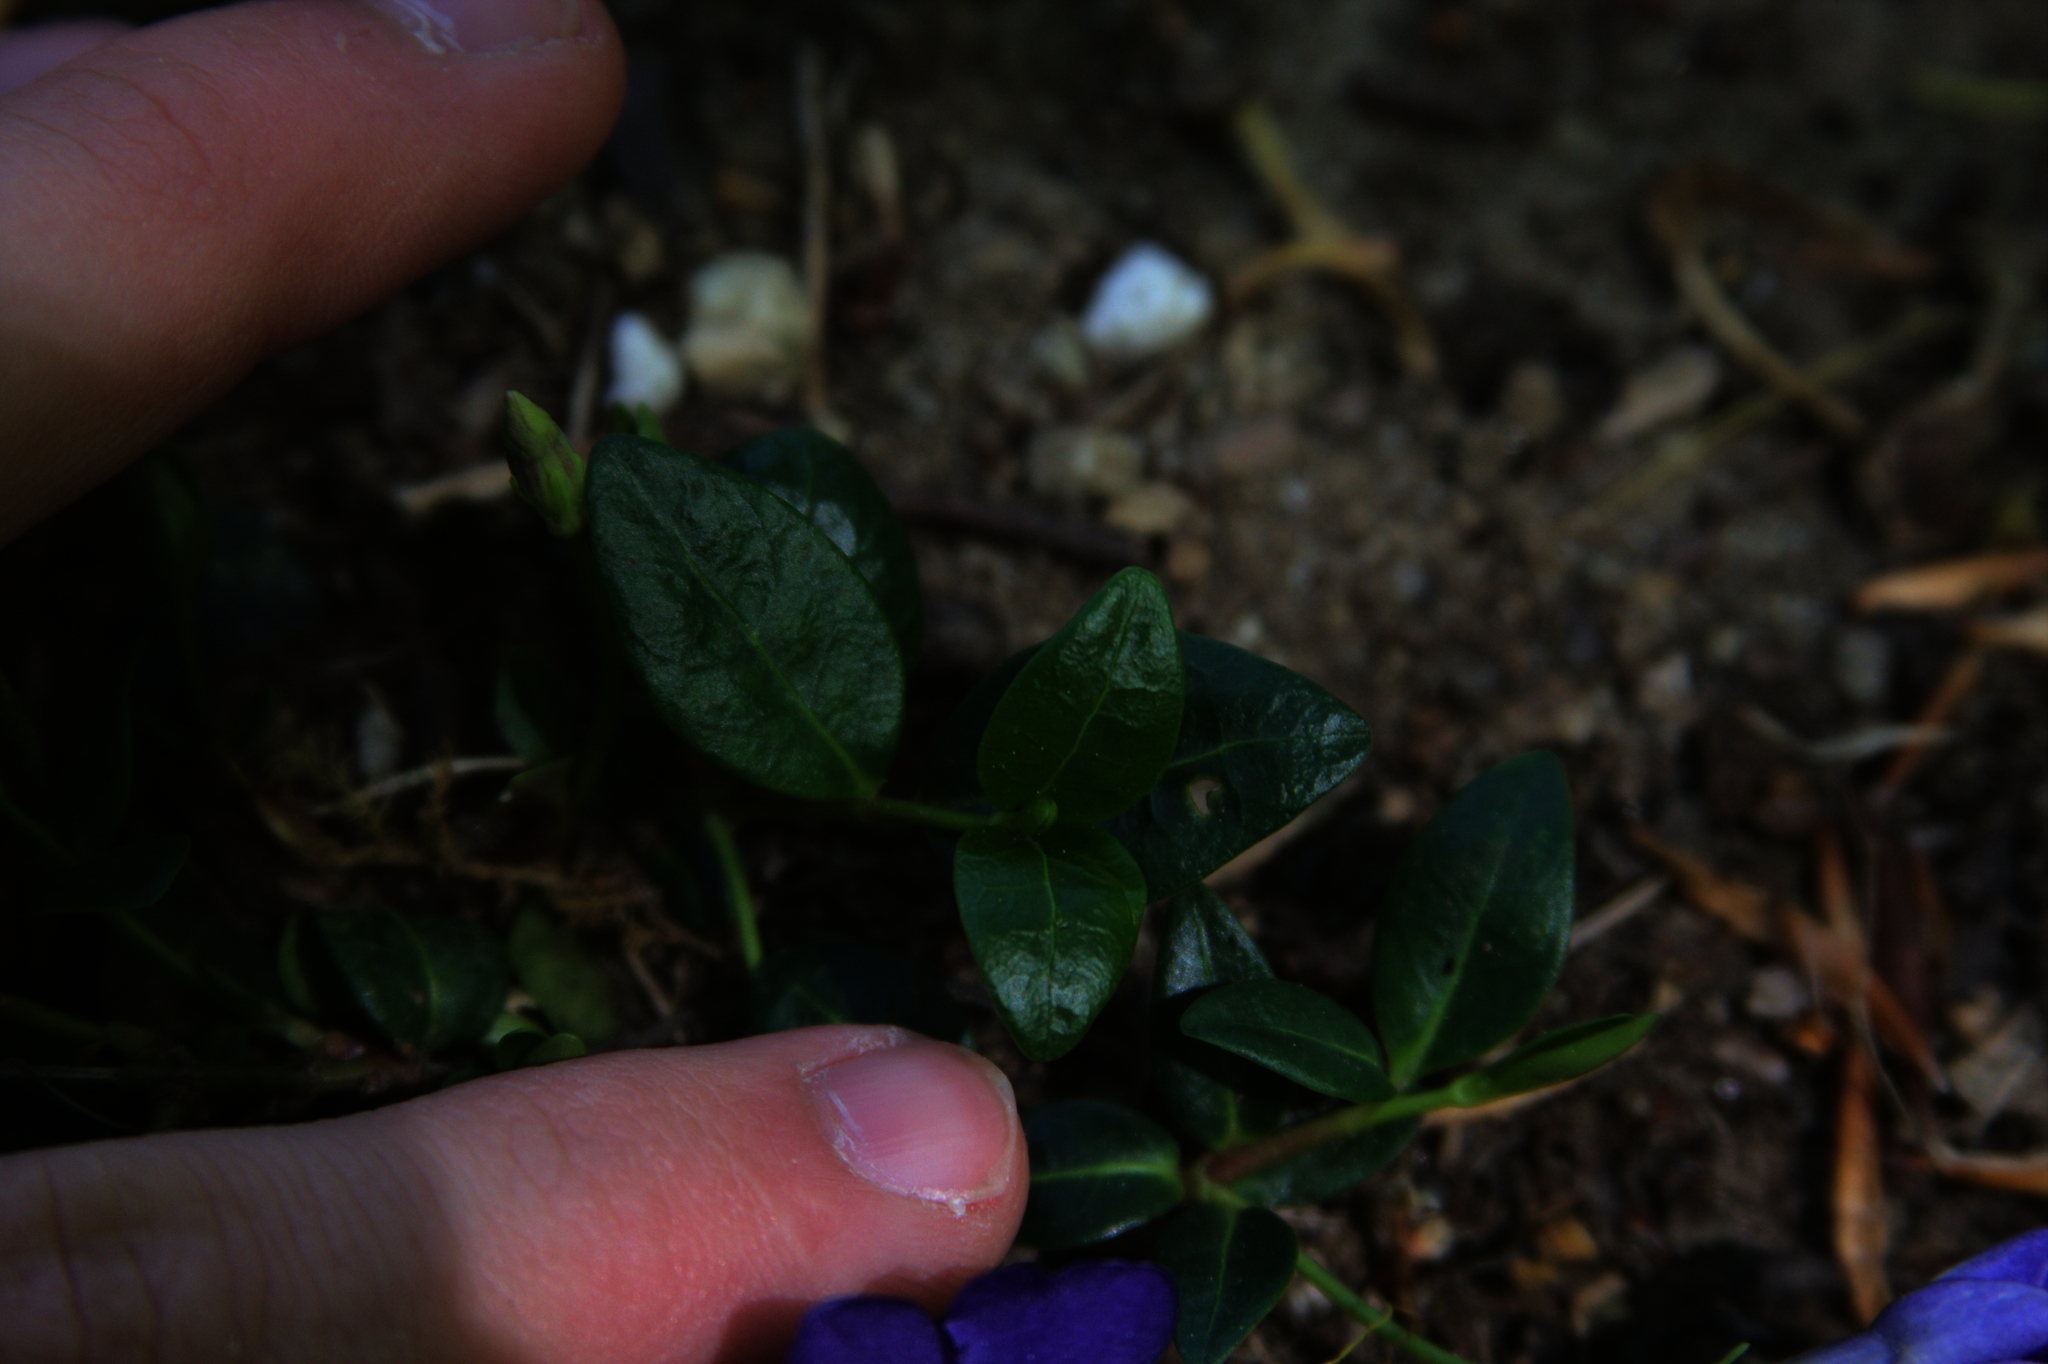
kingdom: Plantae
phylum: Tracheophyta
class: Magnoliopsida
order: Gentianales
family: Apocynaceae
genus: Vinca
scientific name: Vinca minor
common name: Lesser periwinkle
